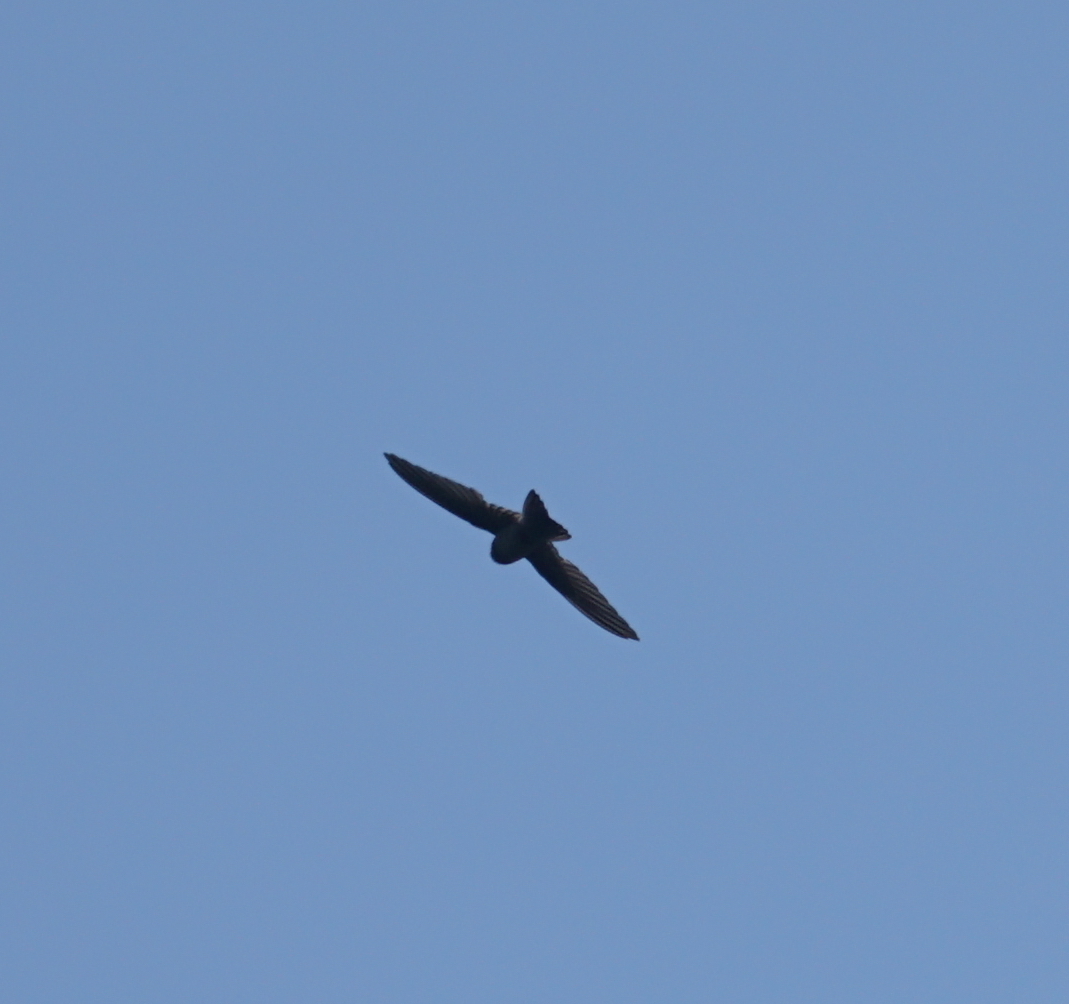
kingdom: Animalia
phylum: Chordata
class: Aves
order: Apodiformes
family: Apodidae
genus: Aerodramus
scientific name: Aerodramus terraereginae
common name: Australian swiftlet
